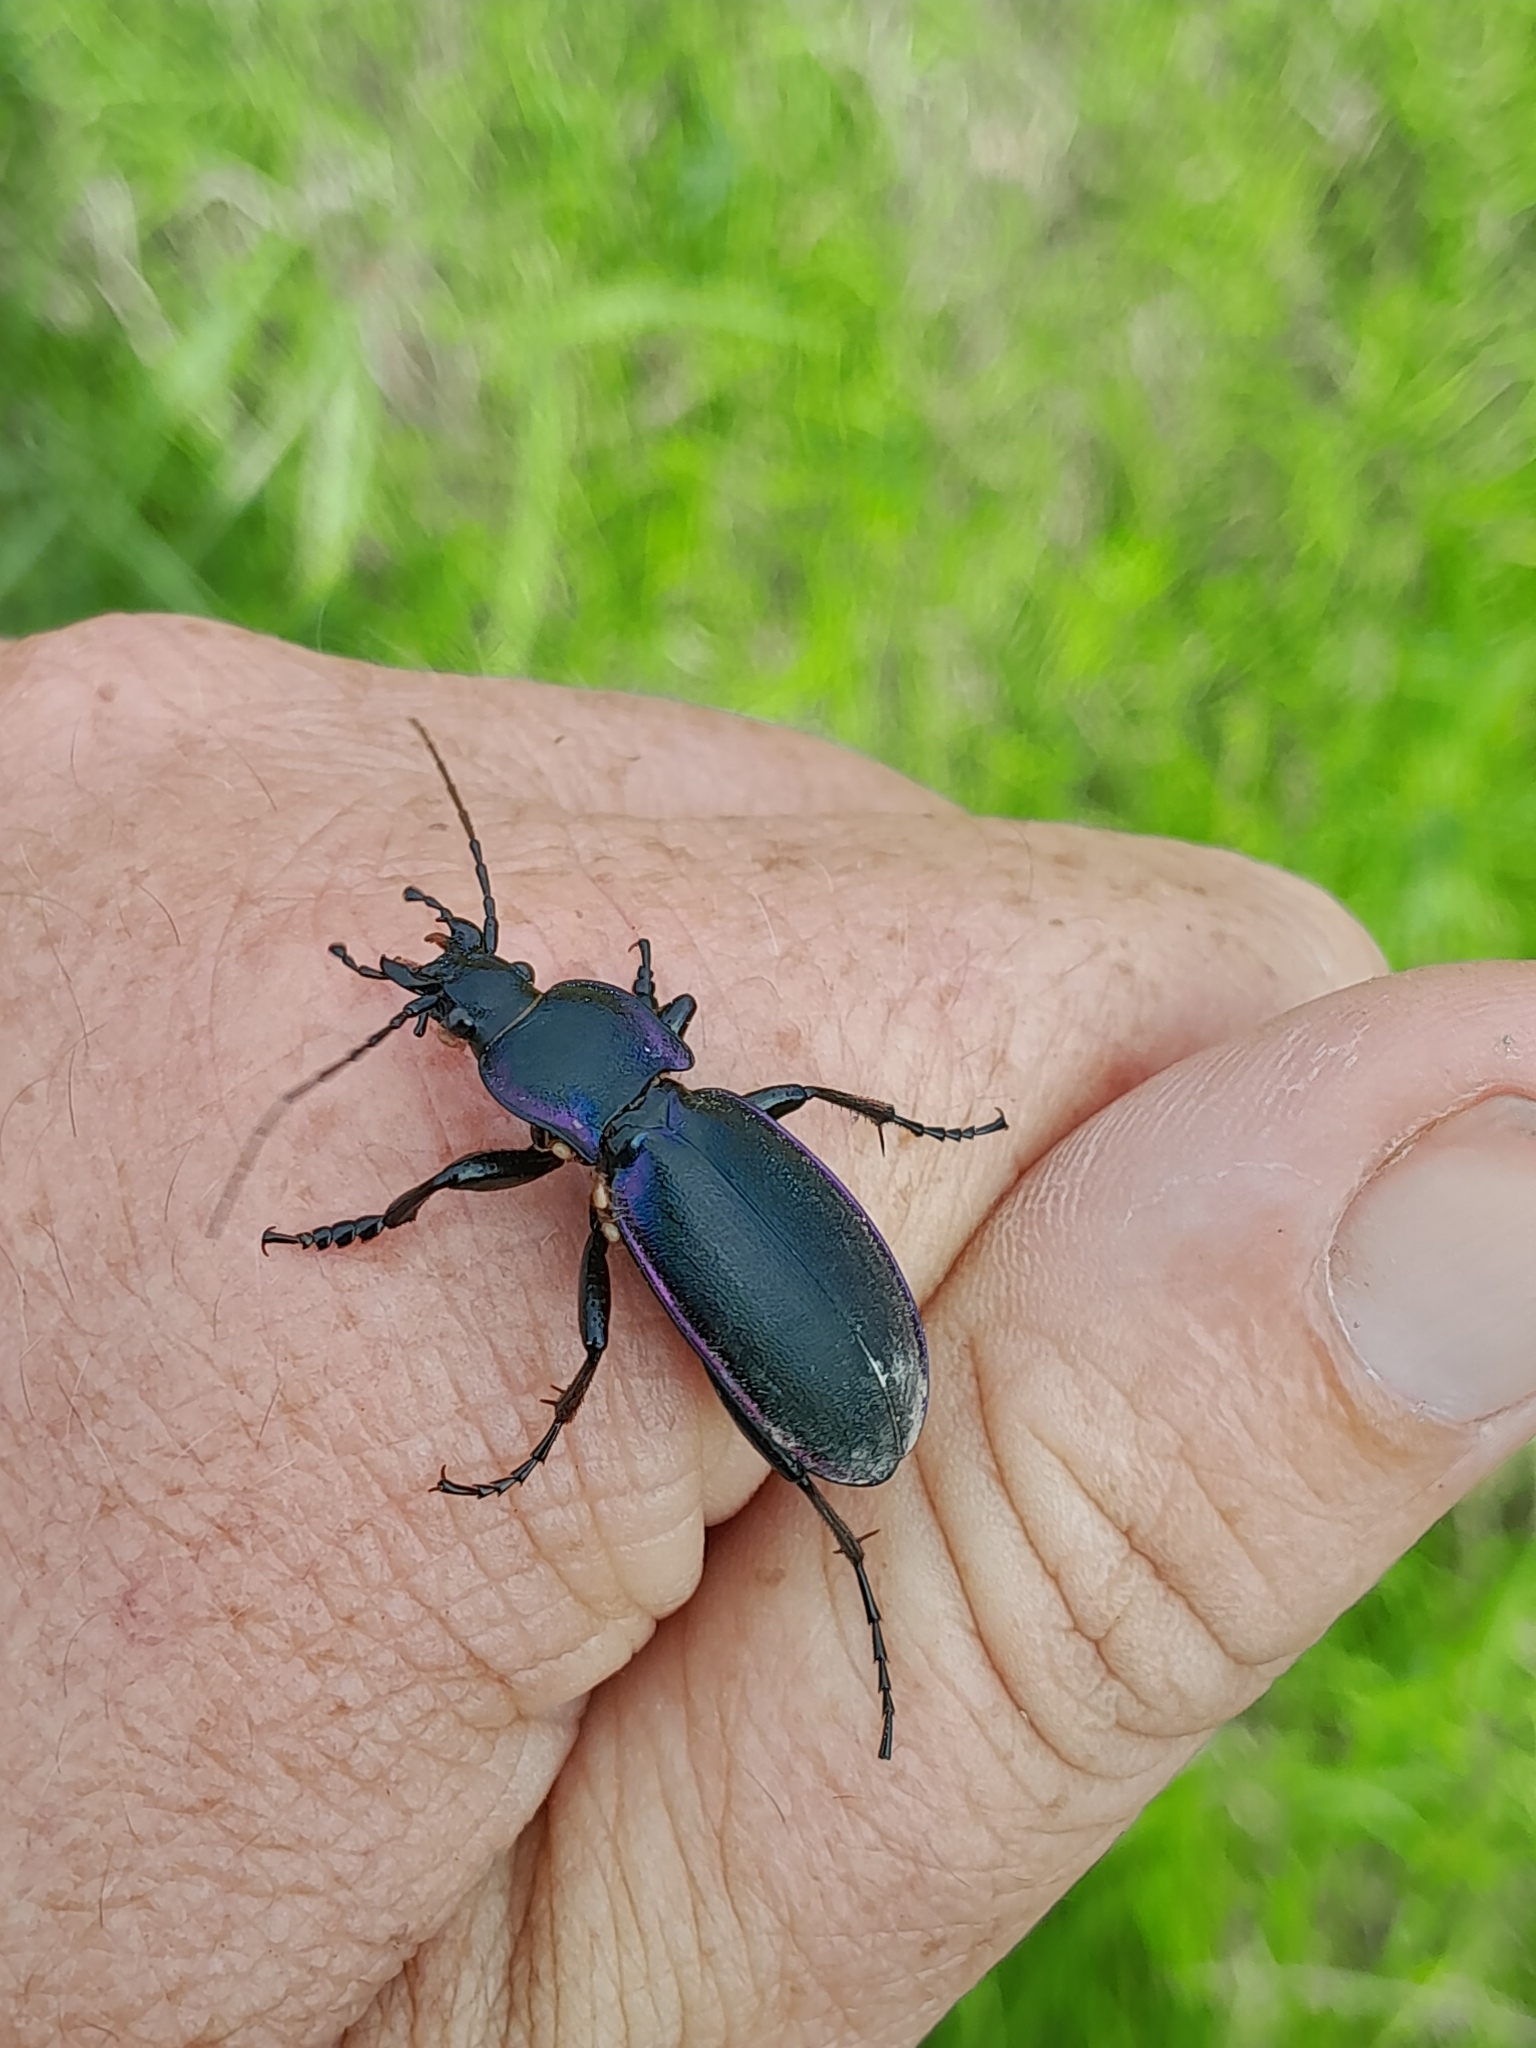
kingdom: Animalia
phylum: Arthropoda
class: Insecta
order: Coleoptera
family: Carabidae
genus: Carabus
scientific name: Carabus violaceus
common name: Violet ground beetle
